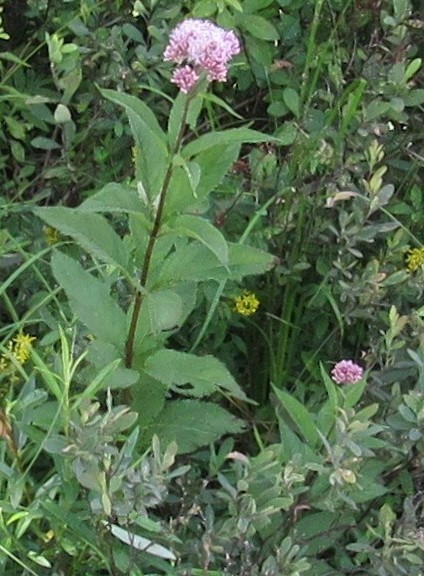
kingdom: Plantae
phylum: Tracheophyta
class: Magnoliopsida
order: Asterales
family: Asteraceae
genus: Eutrochium
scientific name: Eutrochium maculatum
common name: Spotted joe pye weed
